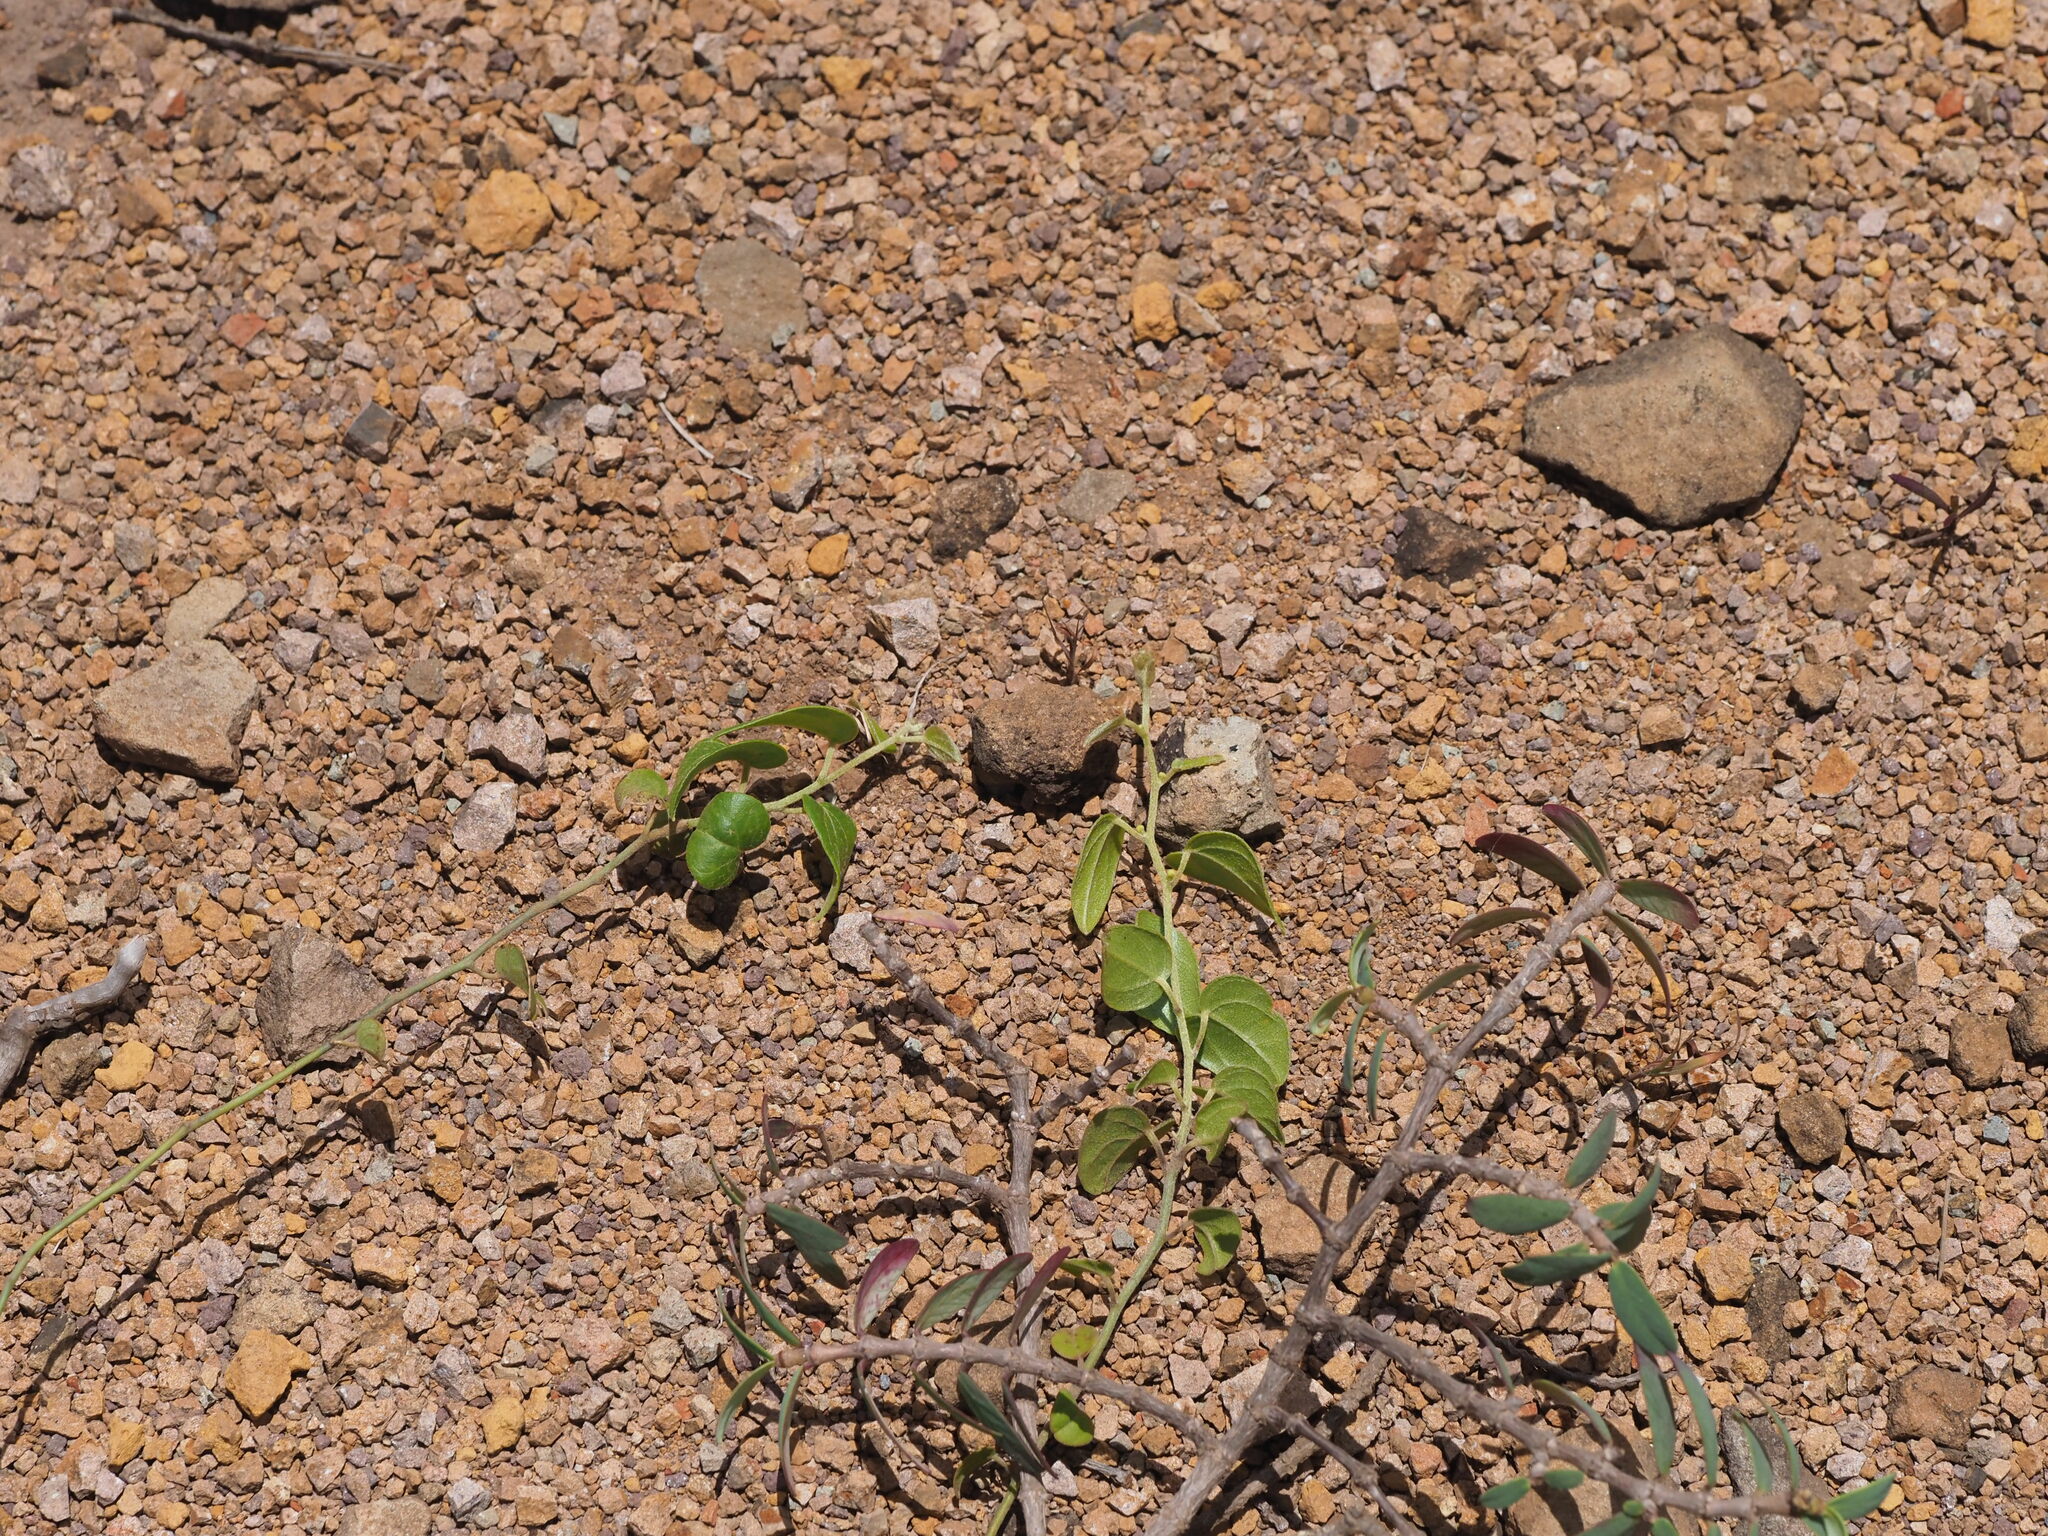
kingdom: Plantae
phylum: Tracheophyta
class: Magnoliopsida
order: Ranunculales
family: Menispermaceae
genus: Cocculus
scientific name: Cocculus orbiculatus
